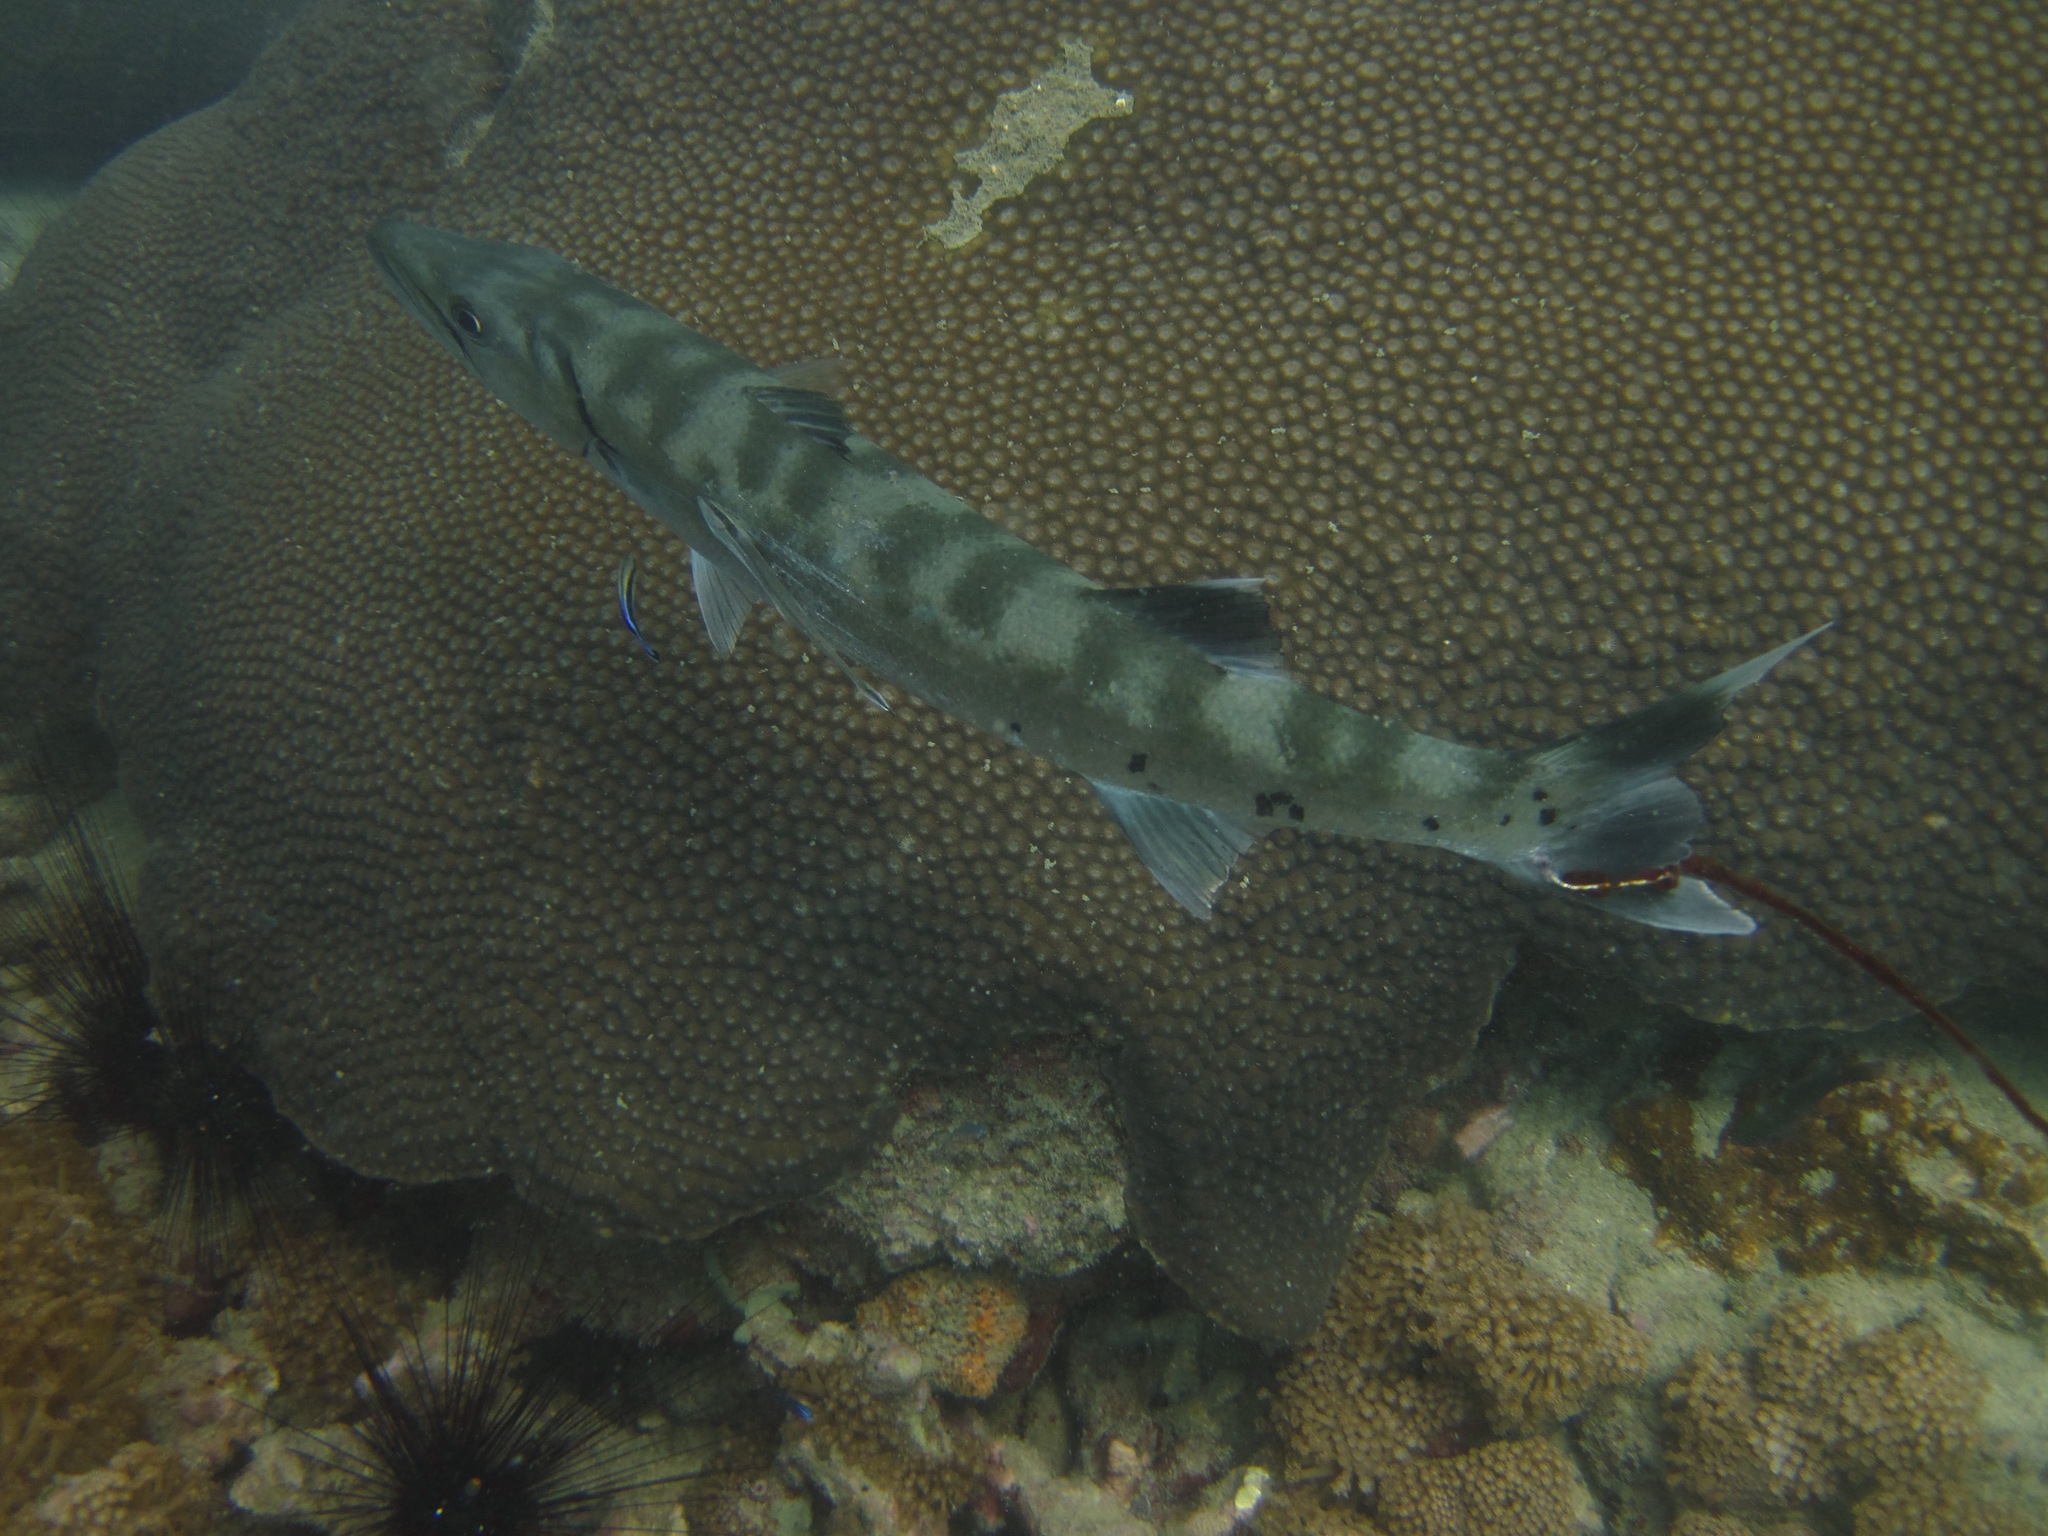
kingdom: Animalia
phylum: Chordata
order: Perciformes
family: Sphyraenidae
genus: Sphyraena
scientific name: Sphyraena barracuda
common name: Great barracuda
